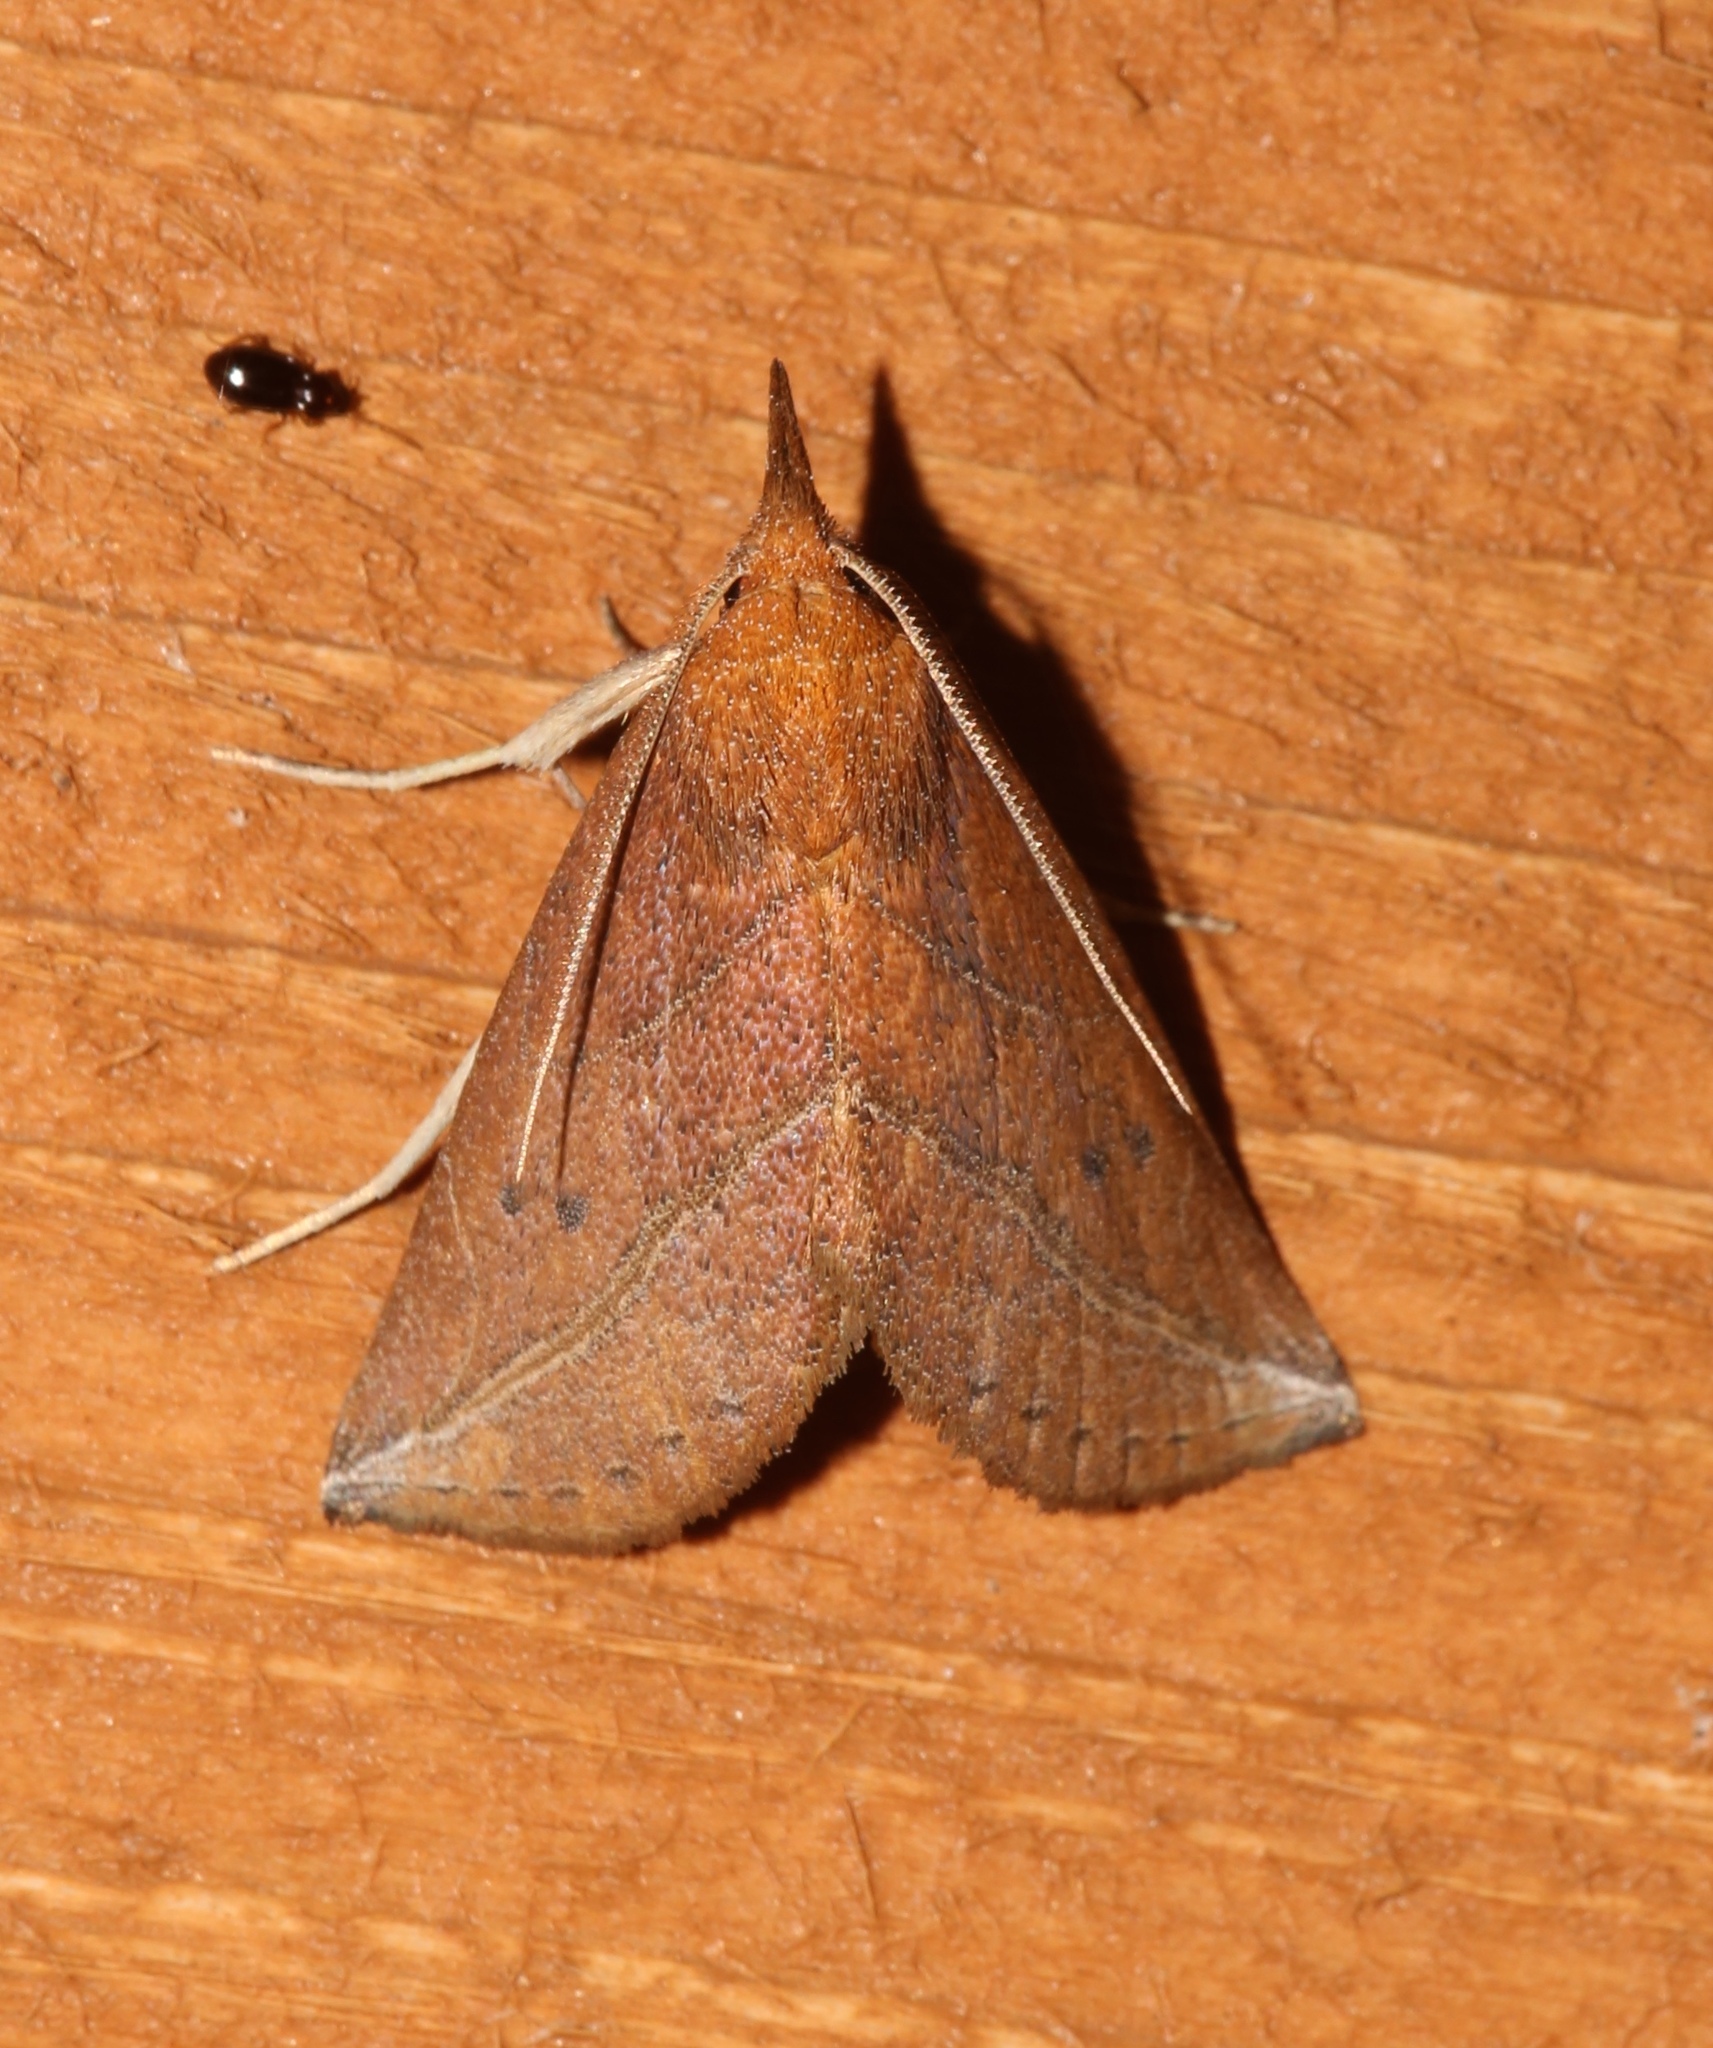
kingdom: Animalia
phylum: Arthropoda
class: Insecta
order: Lepidoptera
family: Erebidae
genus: Phyprosopus
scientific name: Phyprosopus callitrichoides
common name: Curved-lined owlet
